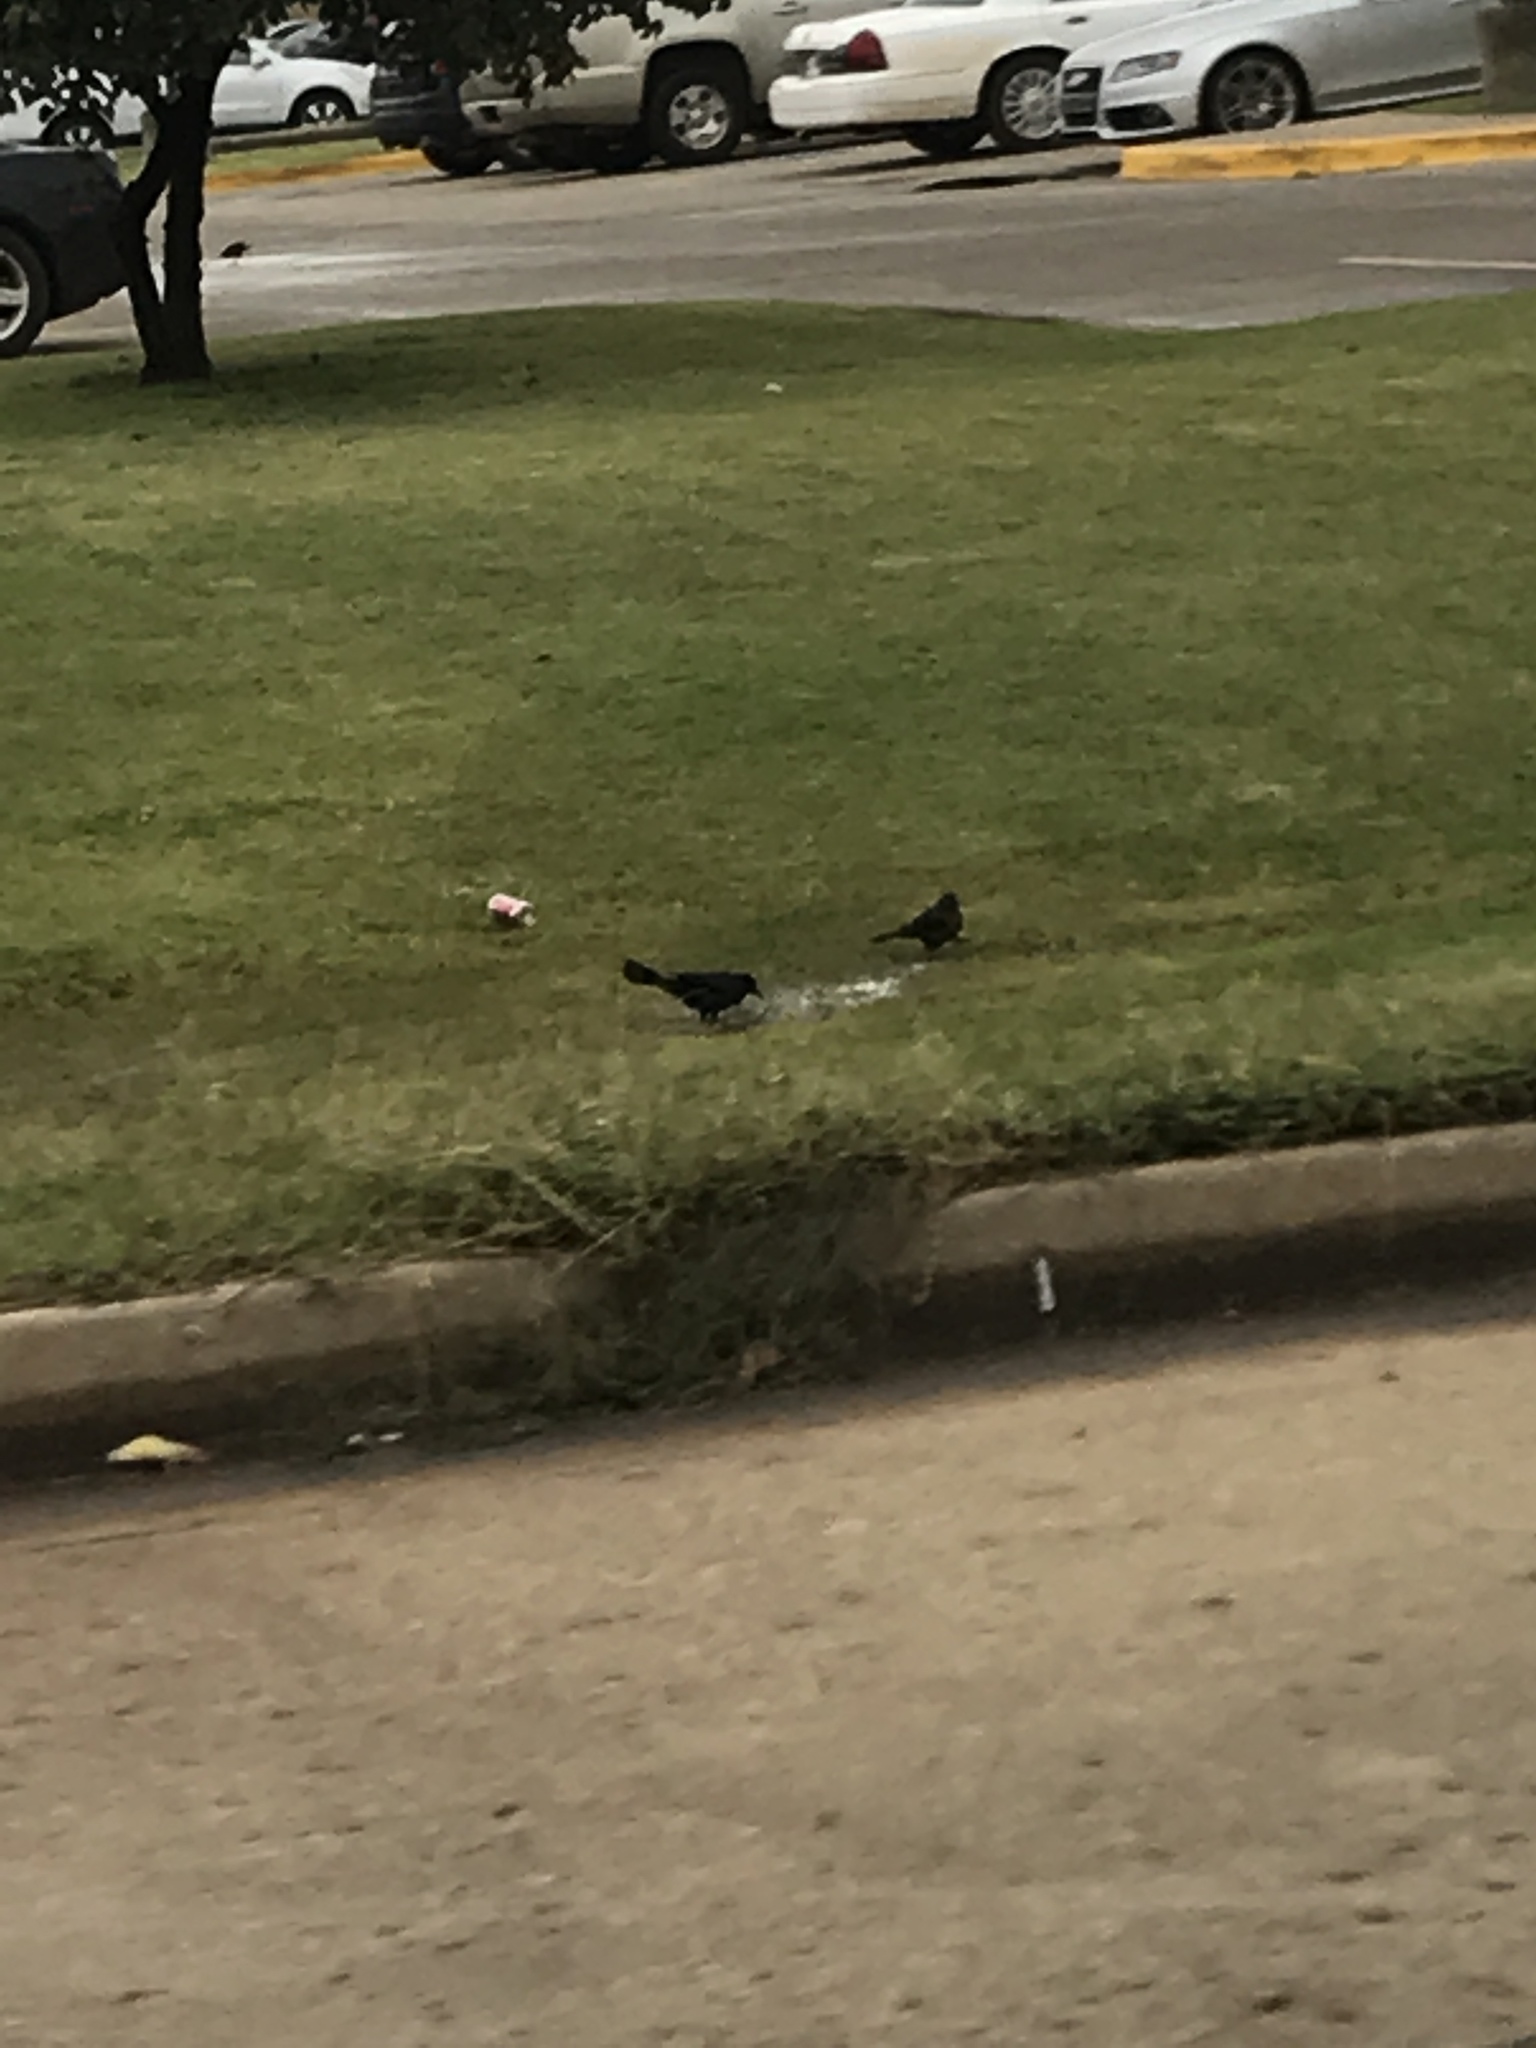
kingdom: Animalia
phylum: Chordata
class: Aves
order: Passeriformes
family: Icteridae
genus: Quiscalus
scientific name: Quiscalus mexicanus
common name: Great-tailed grackle
